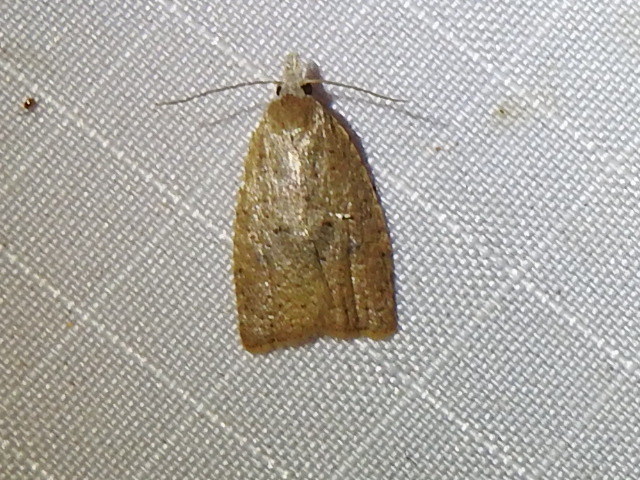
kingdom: Animalia
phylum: Arthropoda
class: Insecta
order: Lepidoptera
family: Tortricidae
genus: Sparganothoides
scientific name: Sparganothoides lentiginosana
